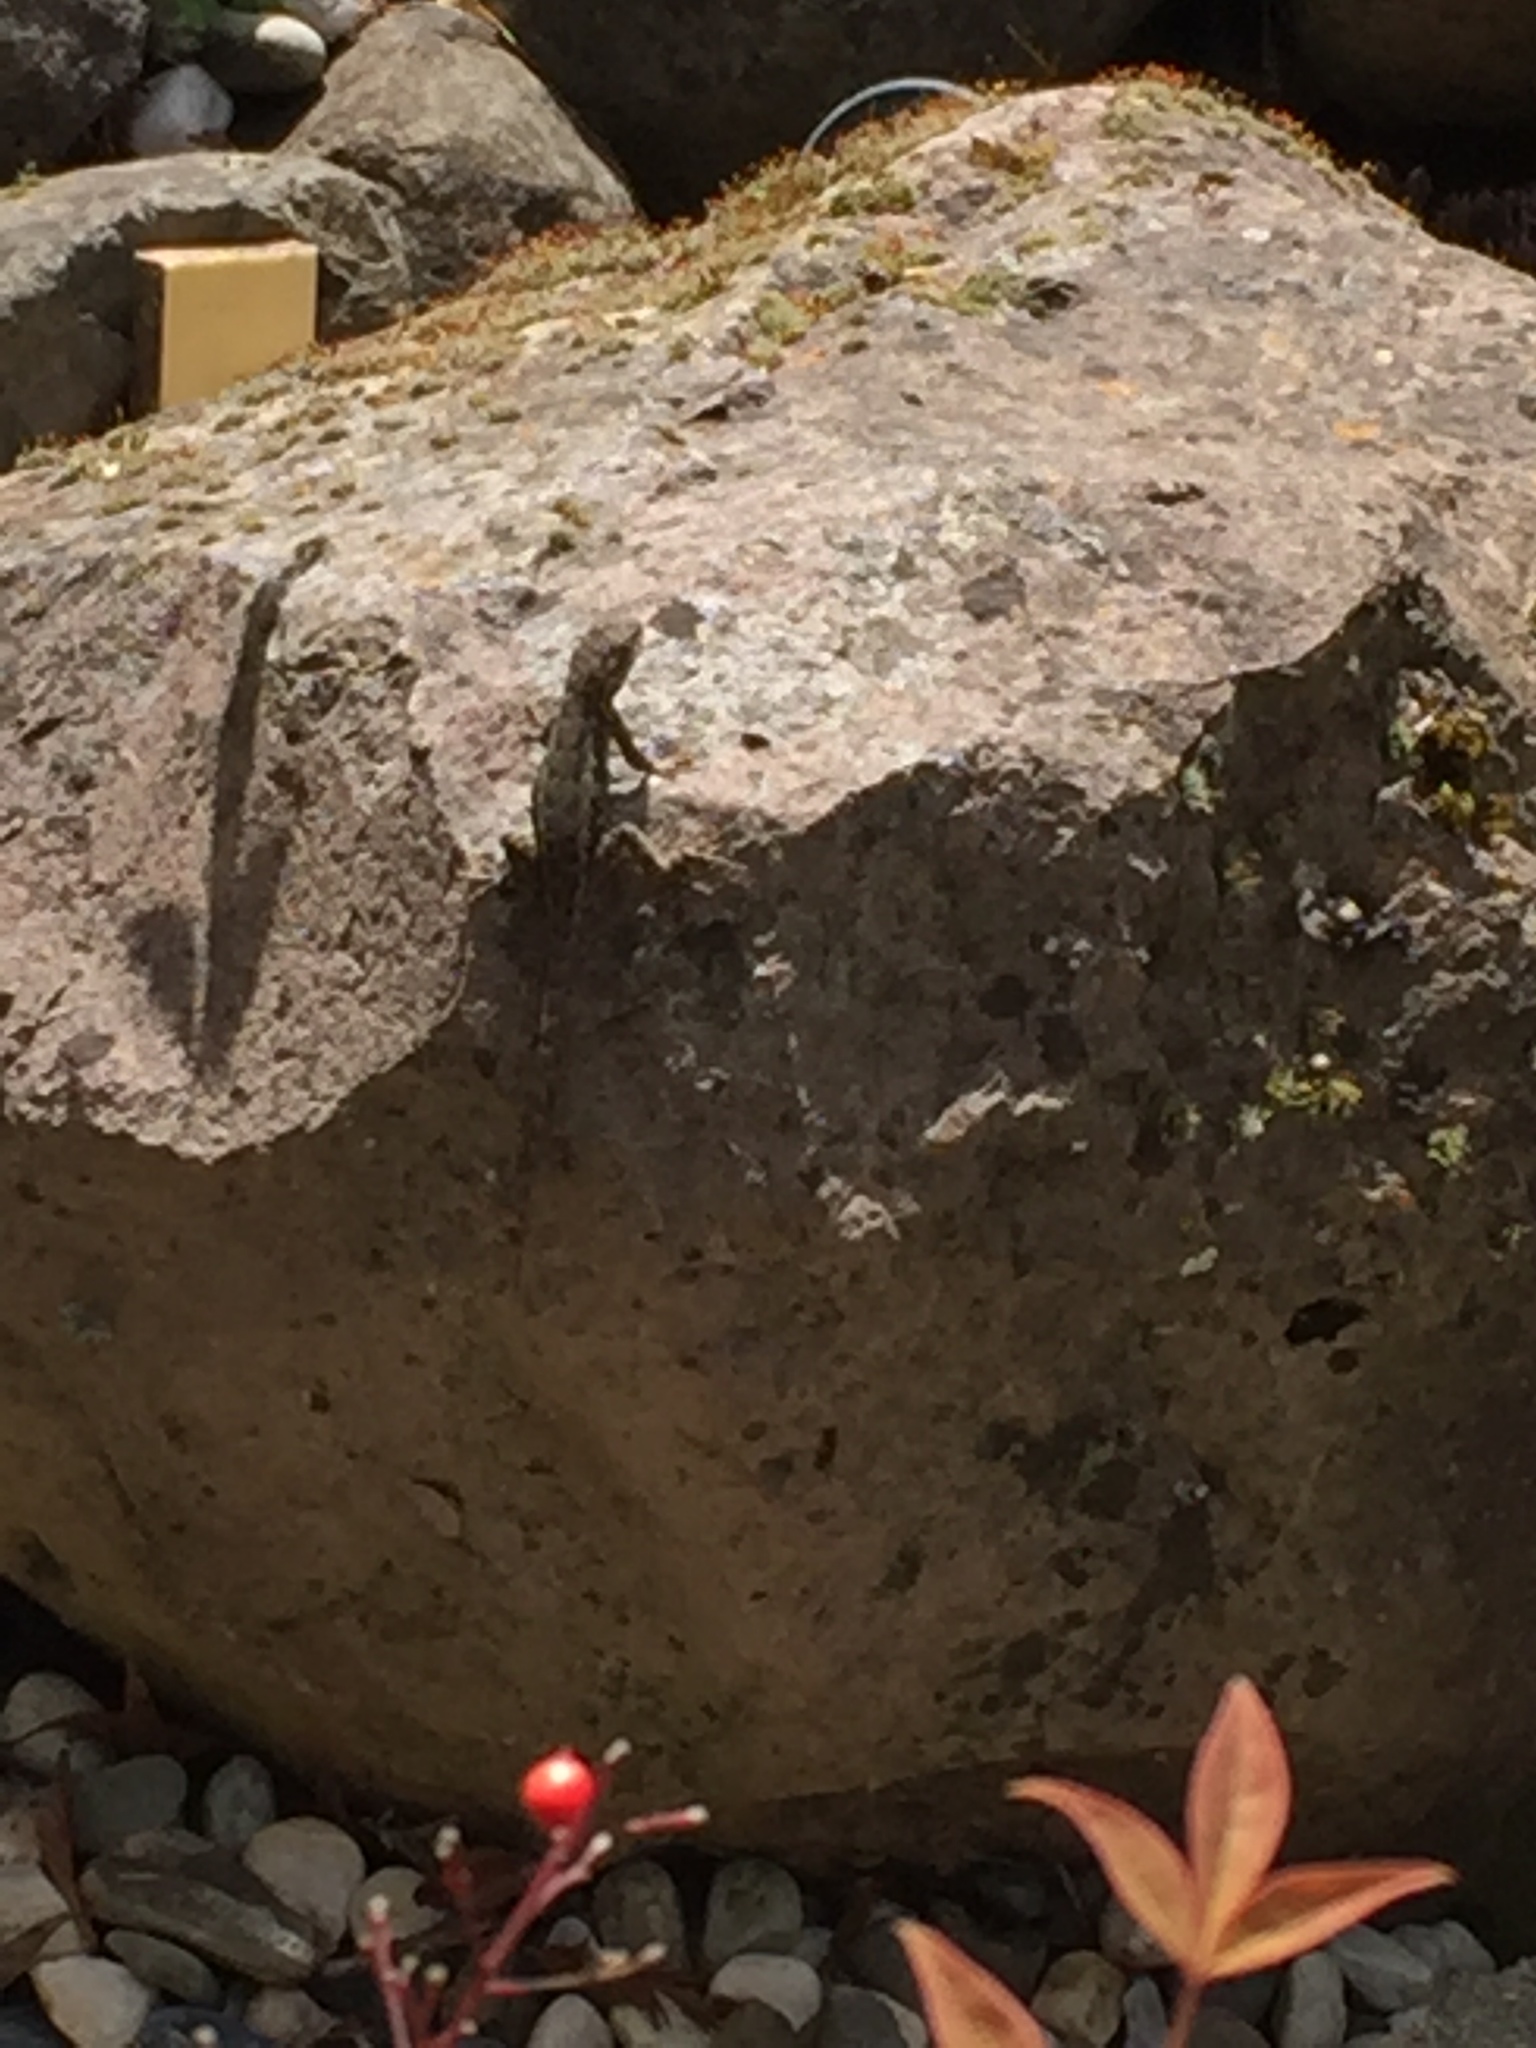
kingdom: Animalia
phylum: Chordata
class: Squamata
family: Phrynosomatidae
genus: Sceloporus
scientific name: Sceloporus occidentalis
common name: Western fence lizard
